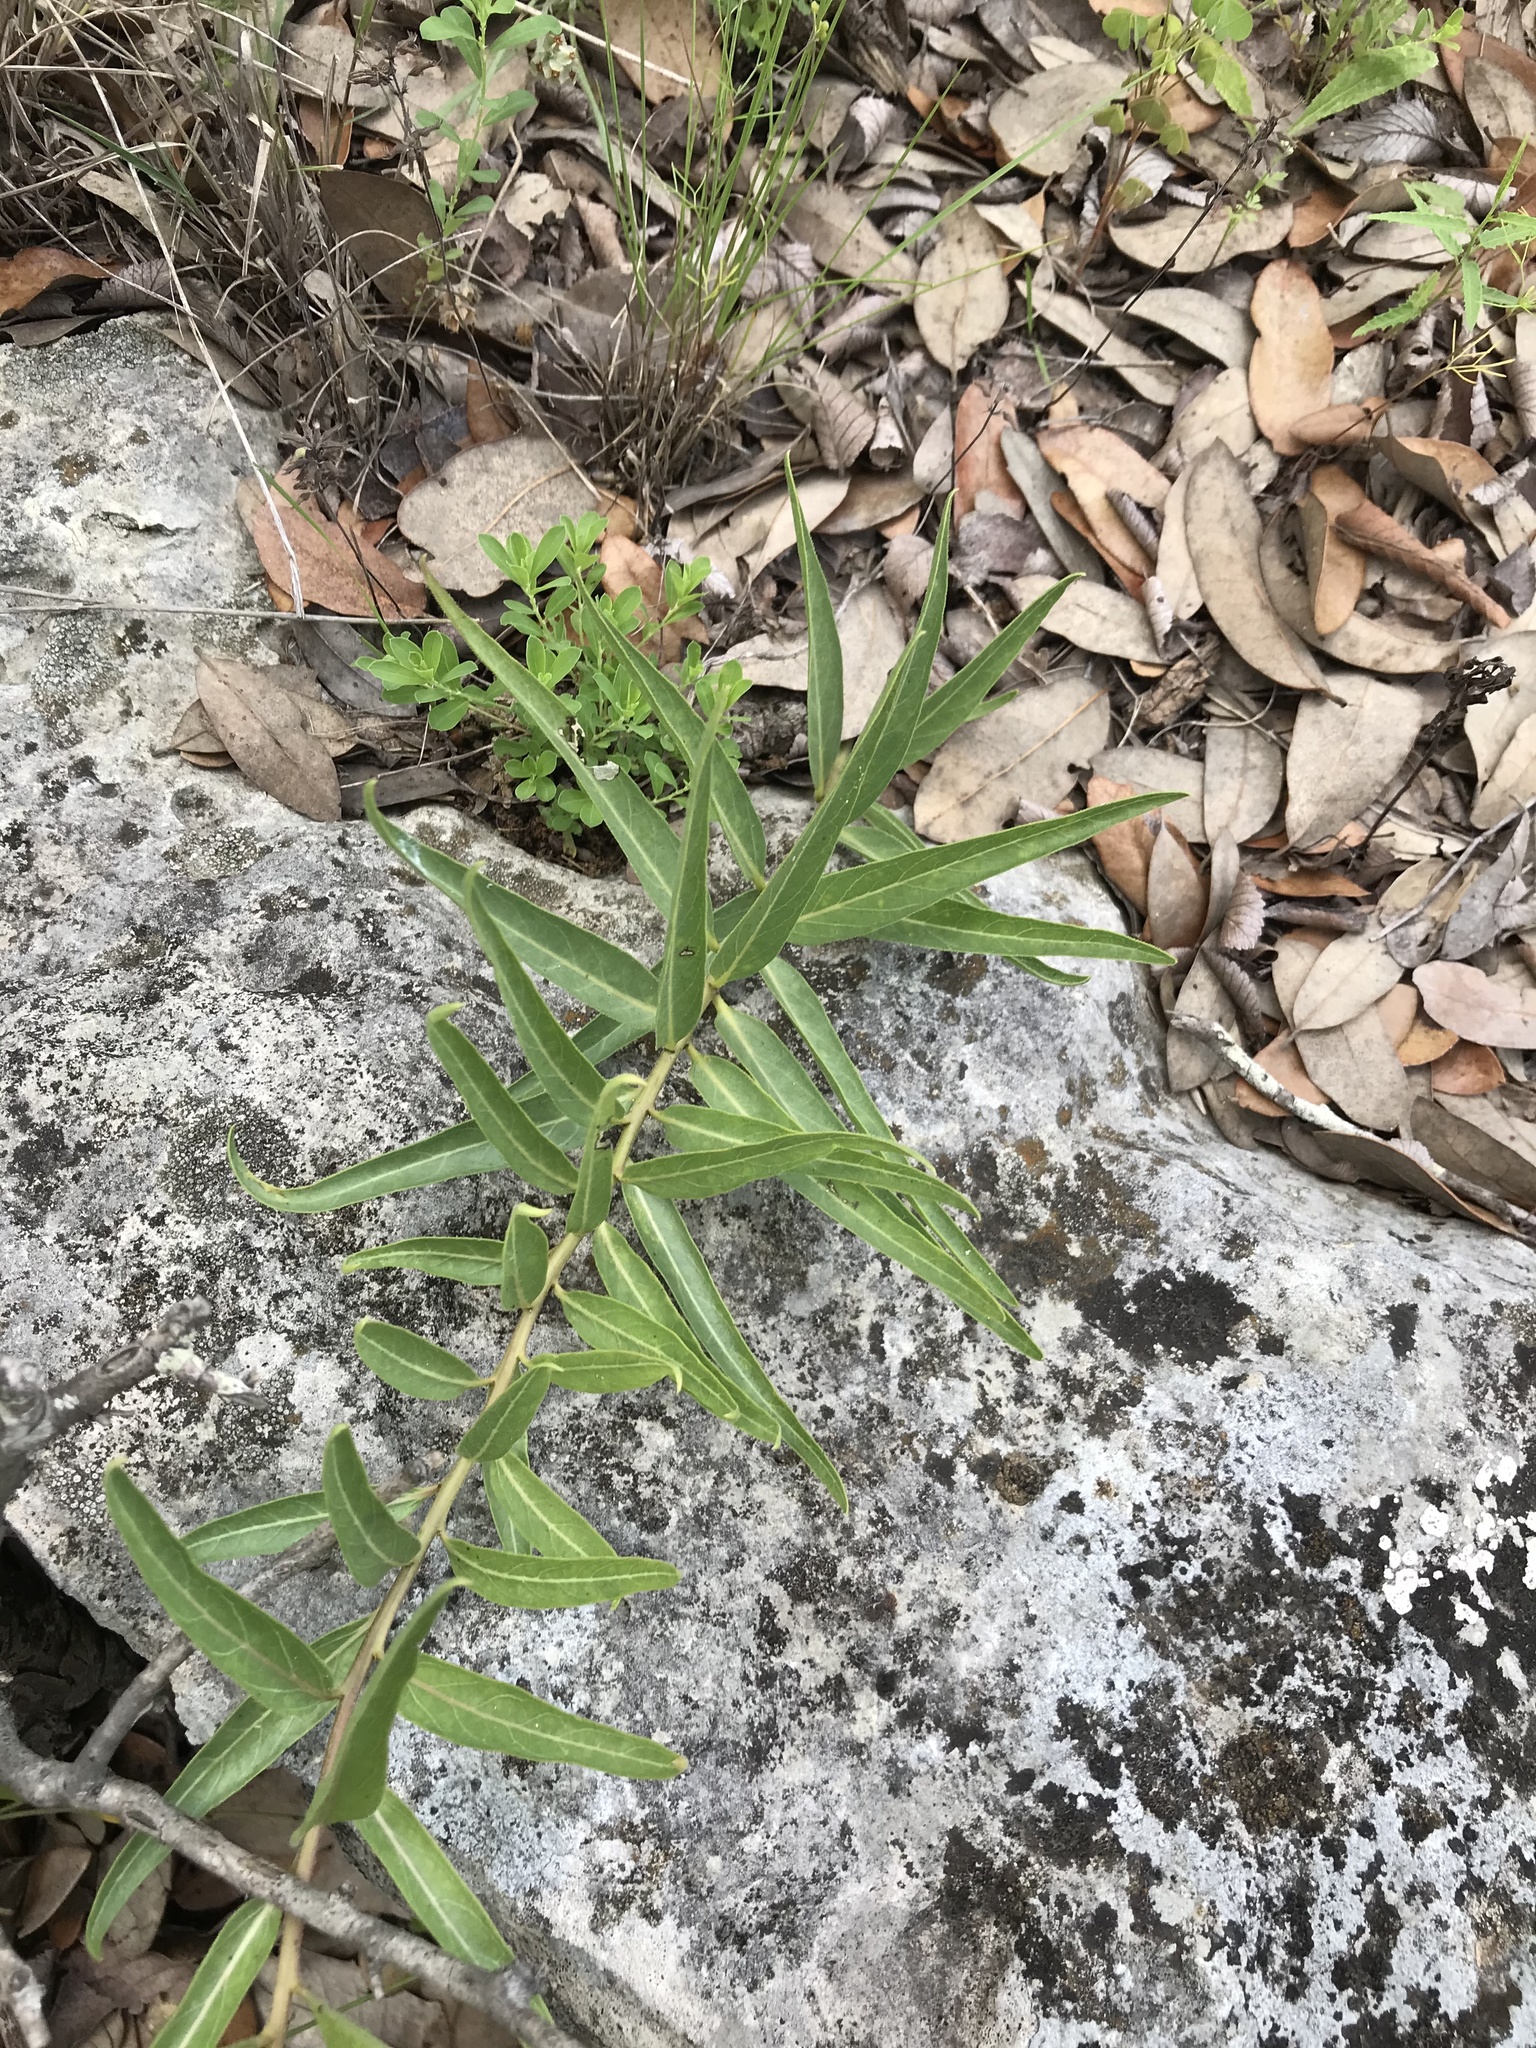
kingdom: Plantae
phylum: Tracheophyta
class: Magnoliopsida
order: Gentianales
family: Apocynaceae
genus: Asclepias
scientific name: Asclepias asperula
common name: Antelope horns
